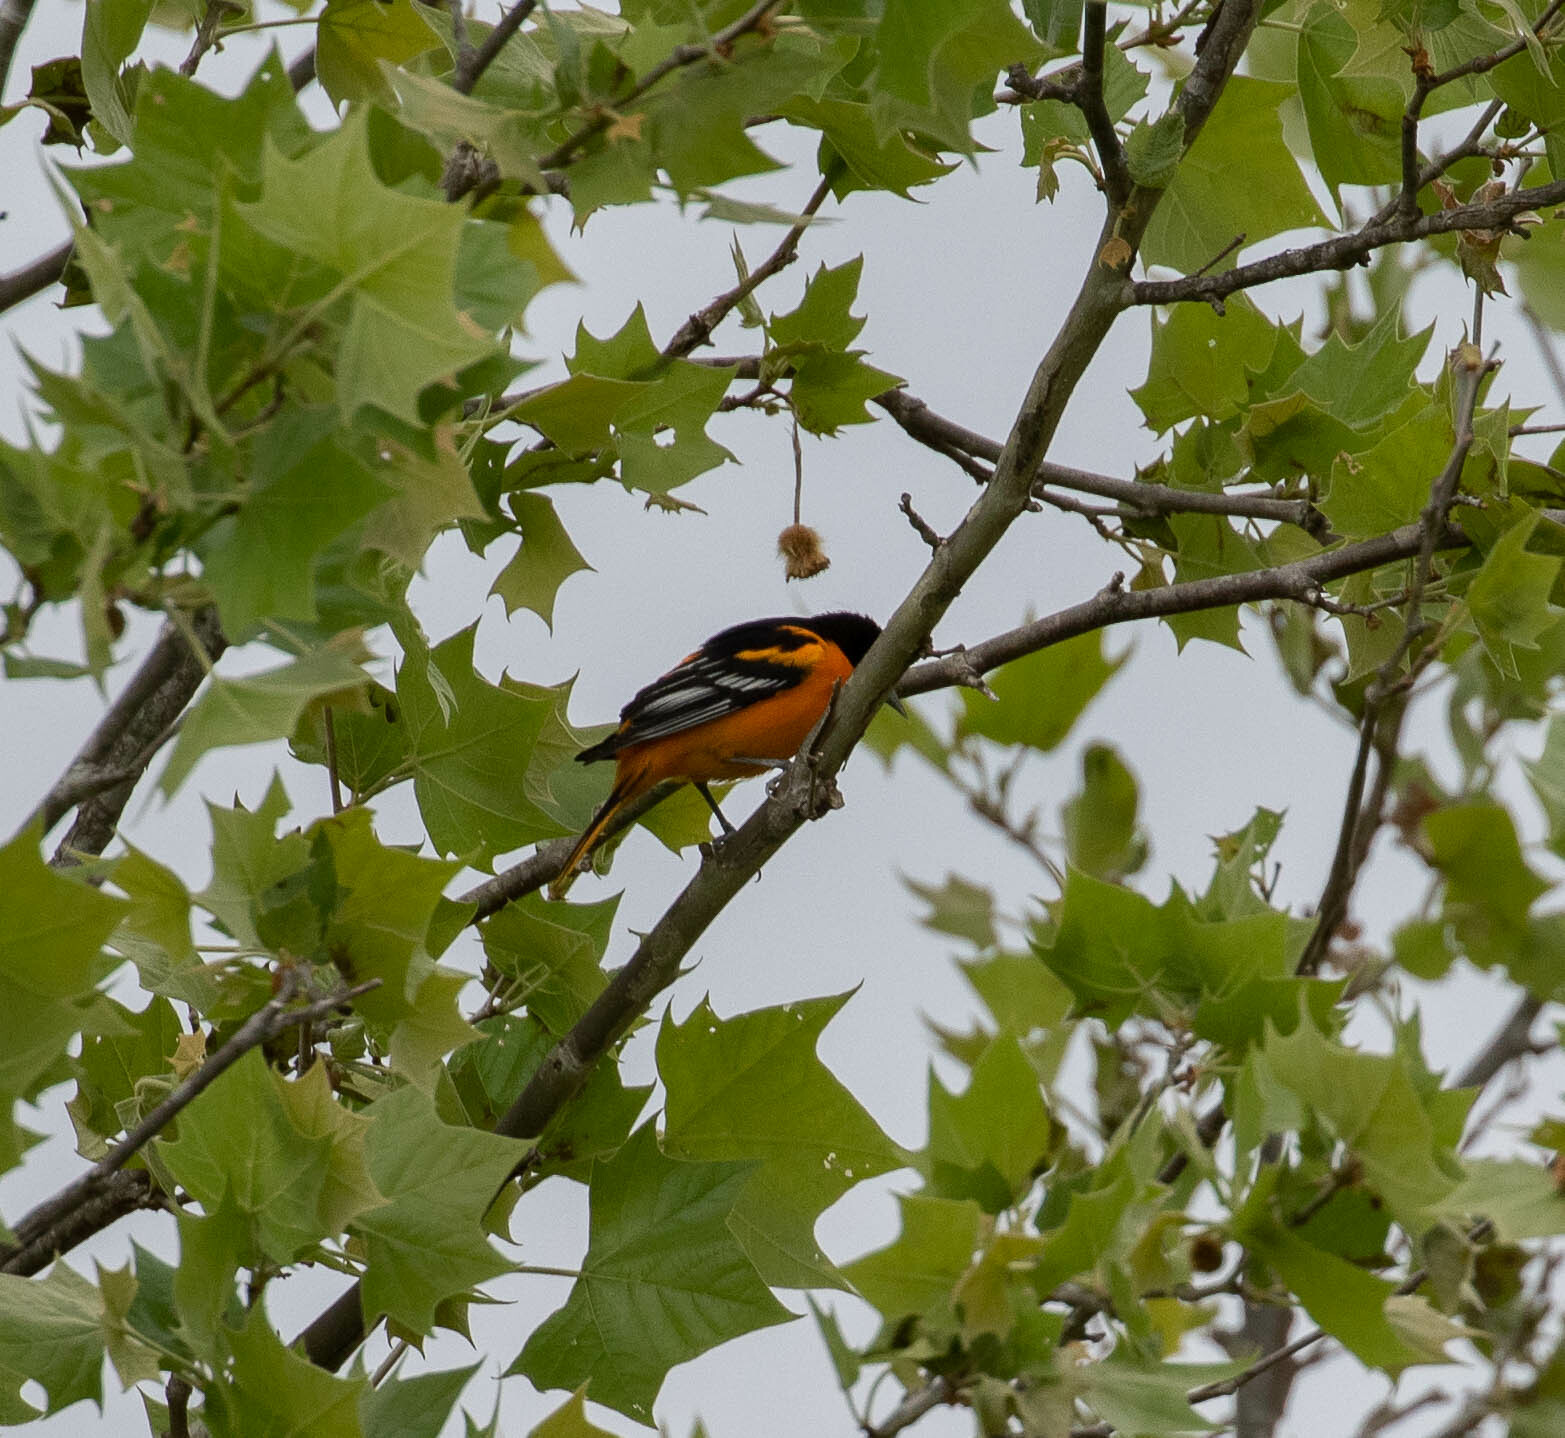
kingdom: Animalia
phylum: Chordata
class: Aves
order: Passeriformes
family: Icteridae
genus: Icterus
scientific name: Icterus galbula
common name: Baltimore oriole
